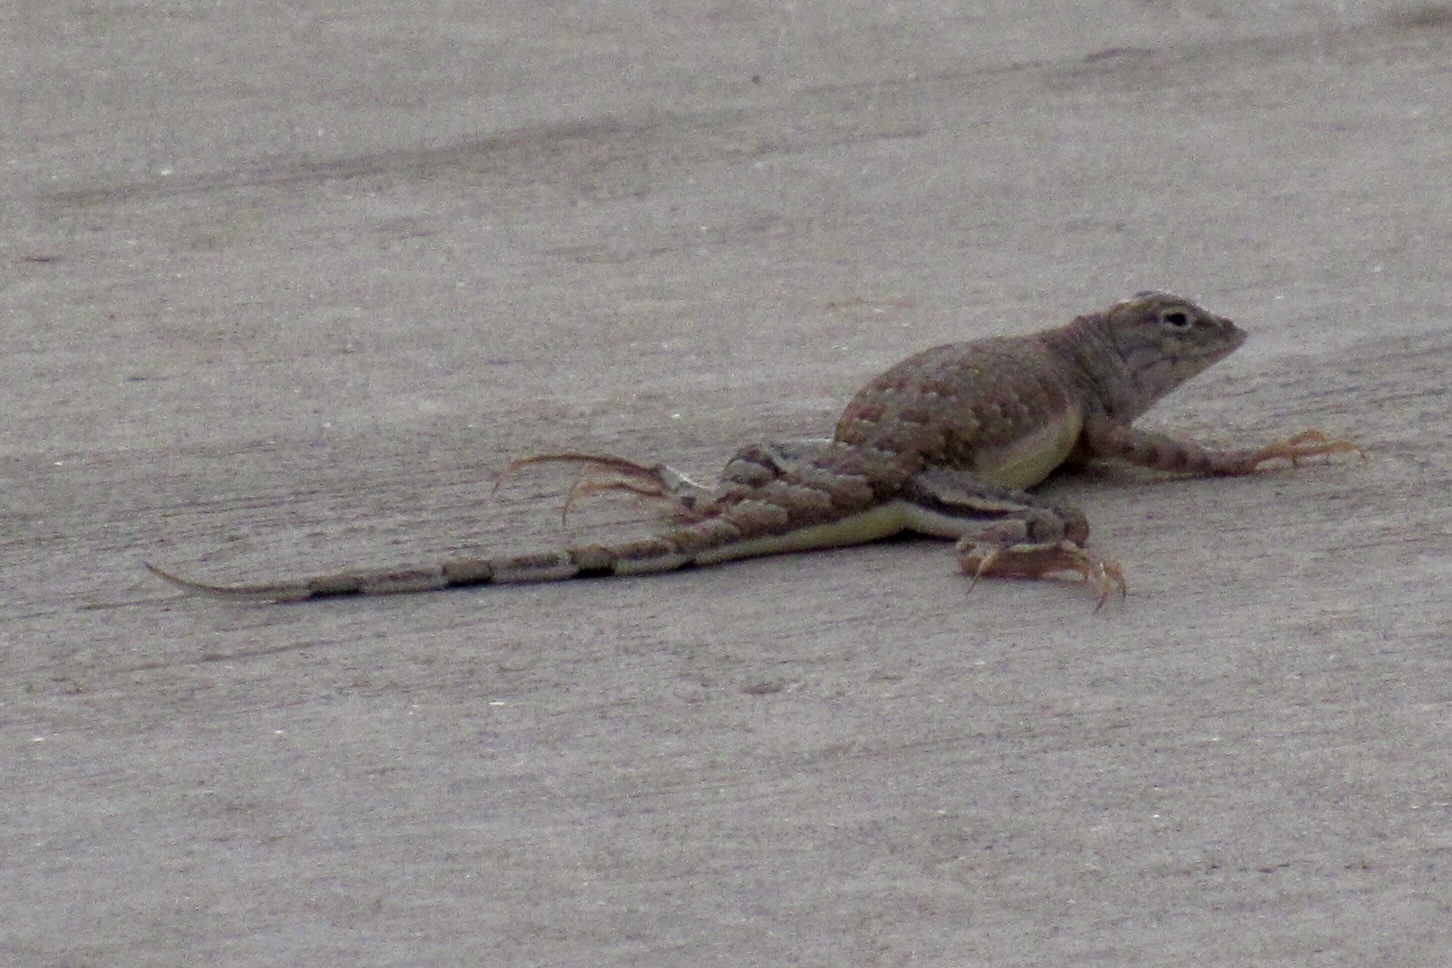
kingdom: Animalia
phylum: Chordata
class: Squamata
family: Phrynosomatidae
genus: Callisaurus
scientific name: Callisaurus draconoides
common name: Zebra-tailed lizard
